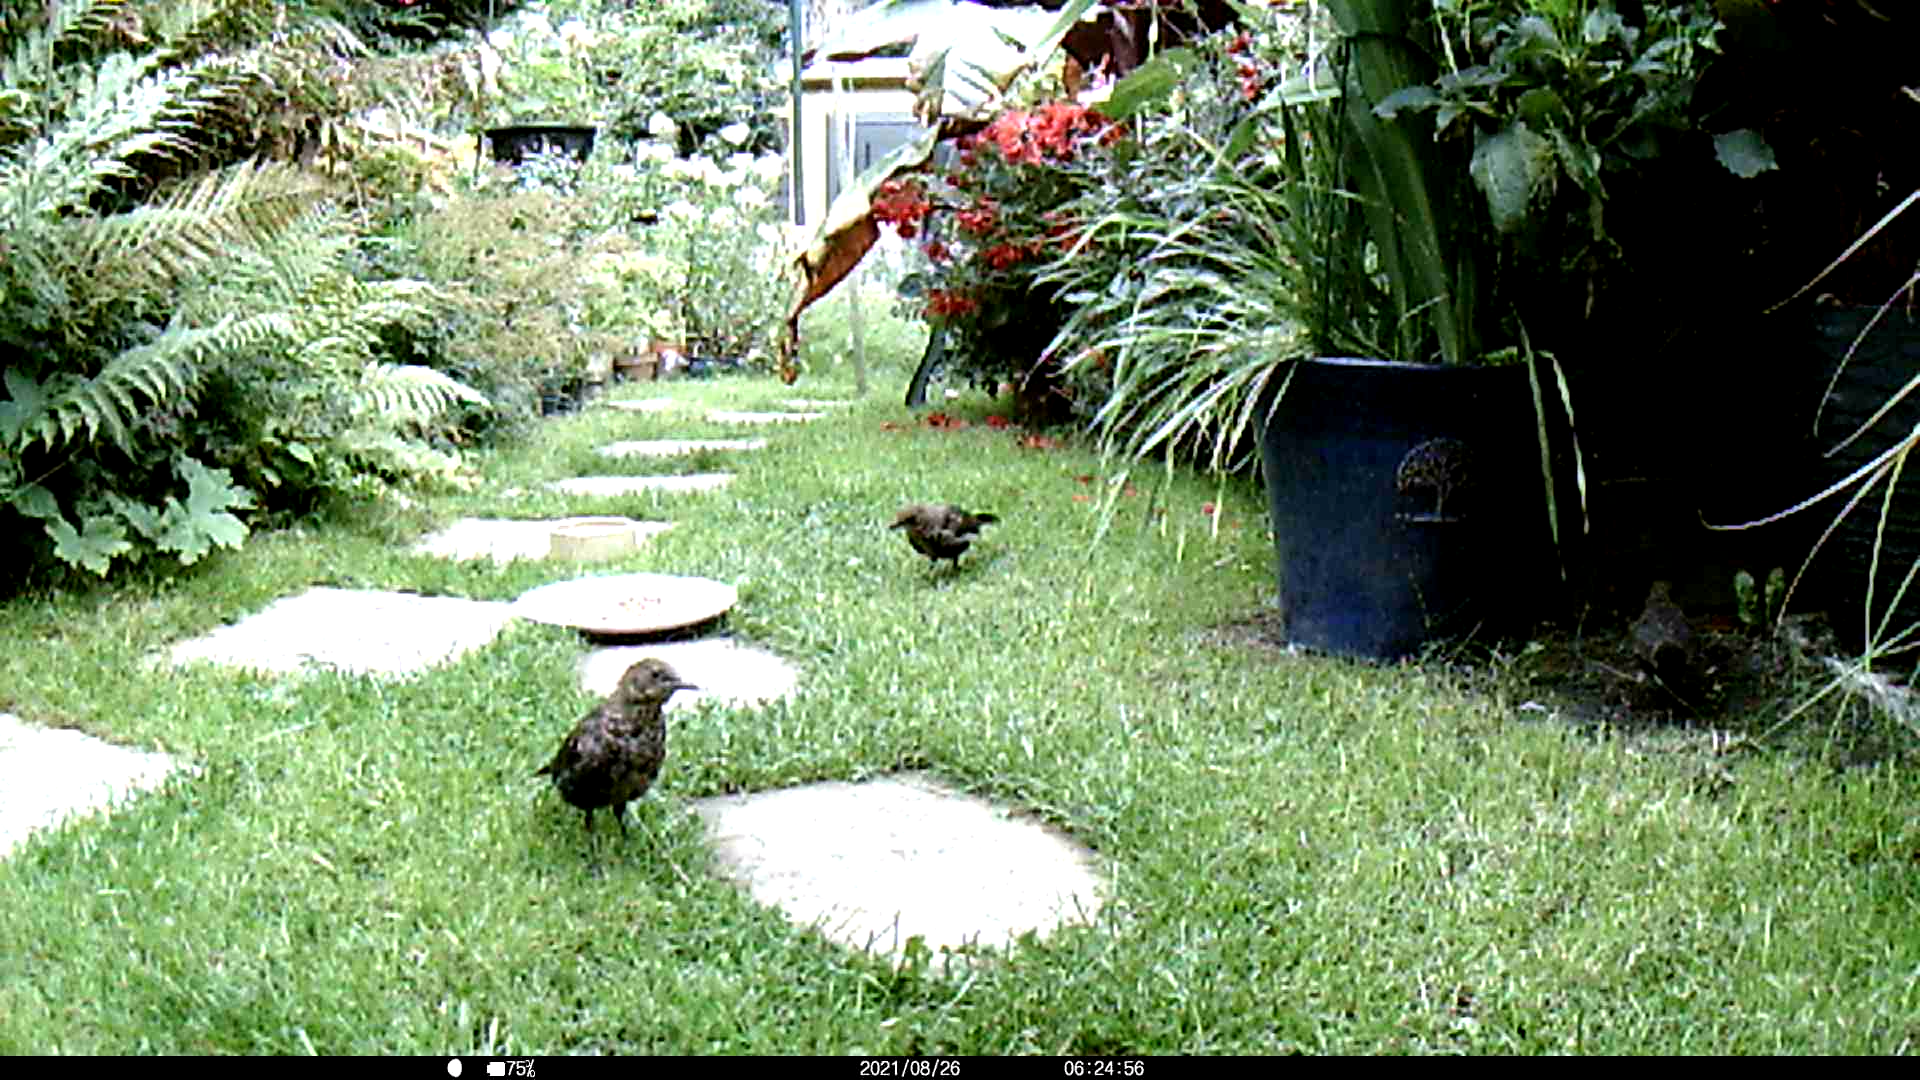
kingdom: Animalia
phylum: Chordata
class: Aves
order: Passeriformes
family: Sturnidae
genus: Sturnus
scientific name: Sturnus vulgaris
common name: Common starling
